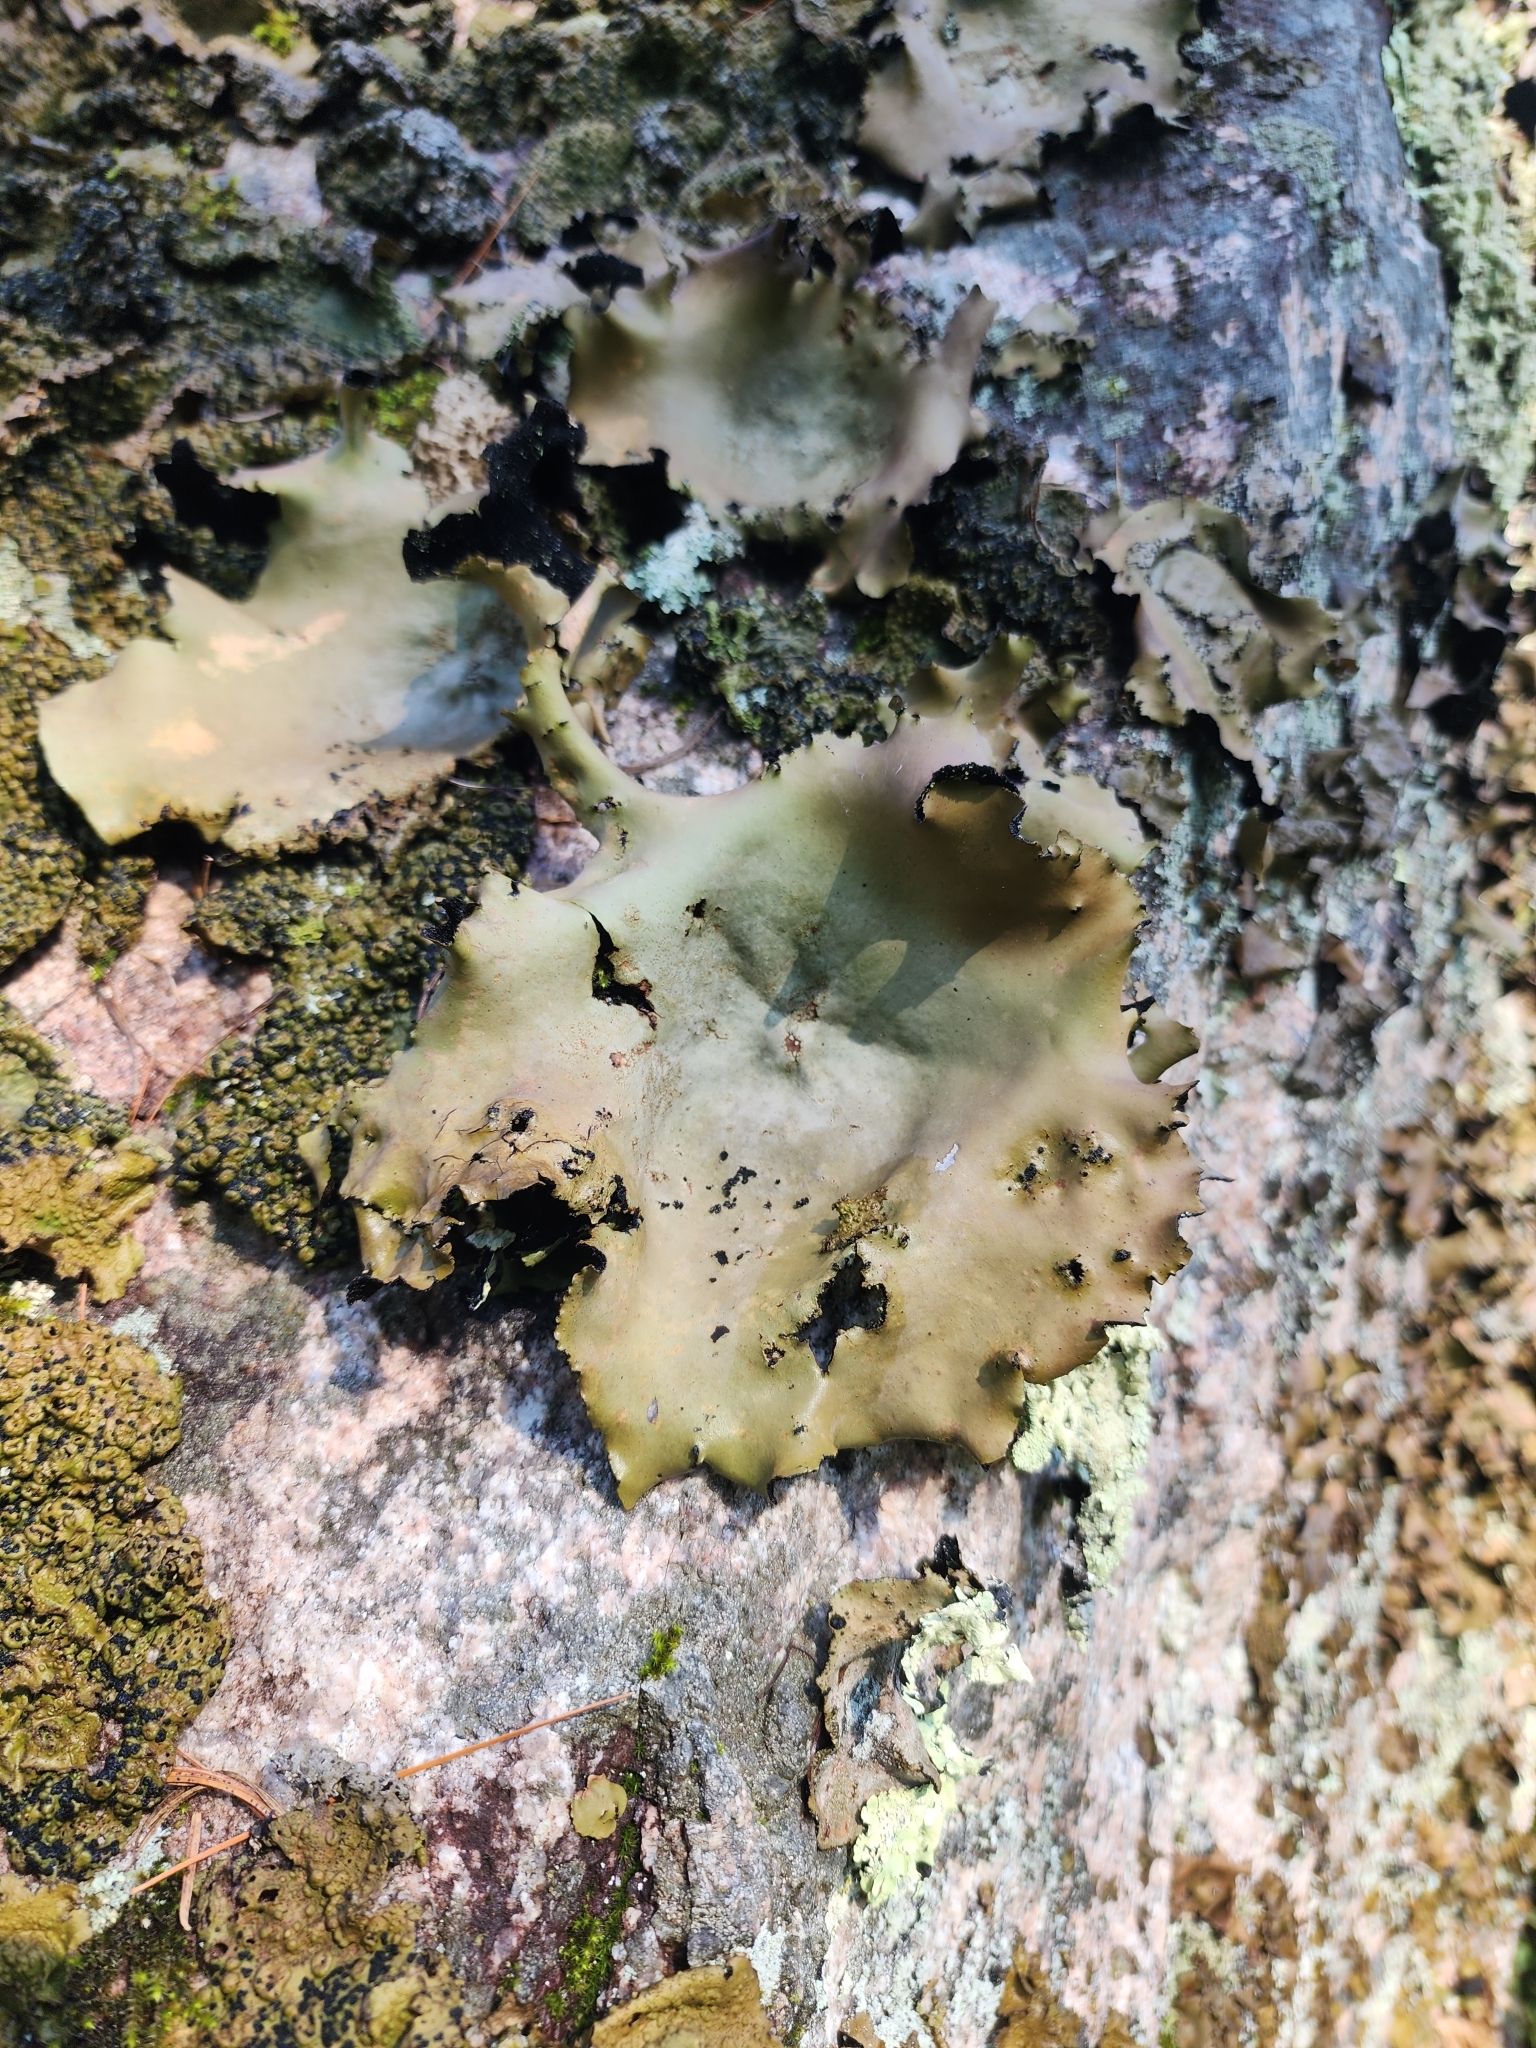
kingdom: Fungi
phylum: Ascomycota
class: Lecanoromycetes
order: Umbilicariales
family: Umbilicariaceae
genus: Umbilicaria
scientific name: Umbilicaria mammulata
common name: Smooth rock tripe
